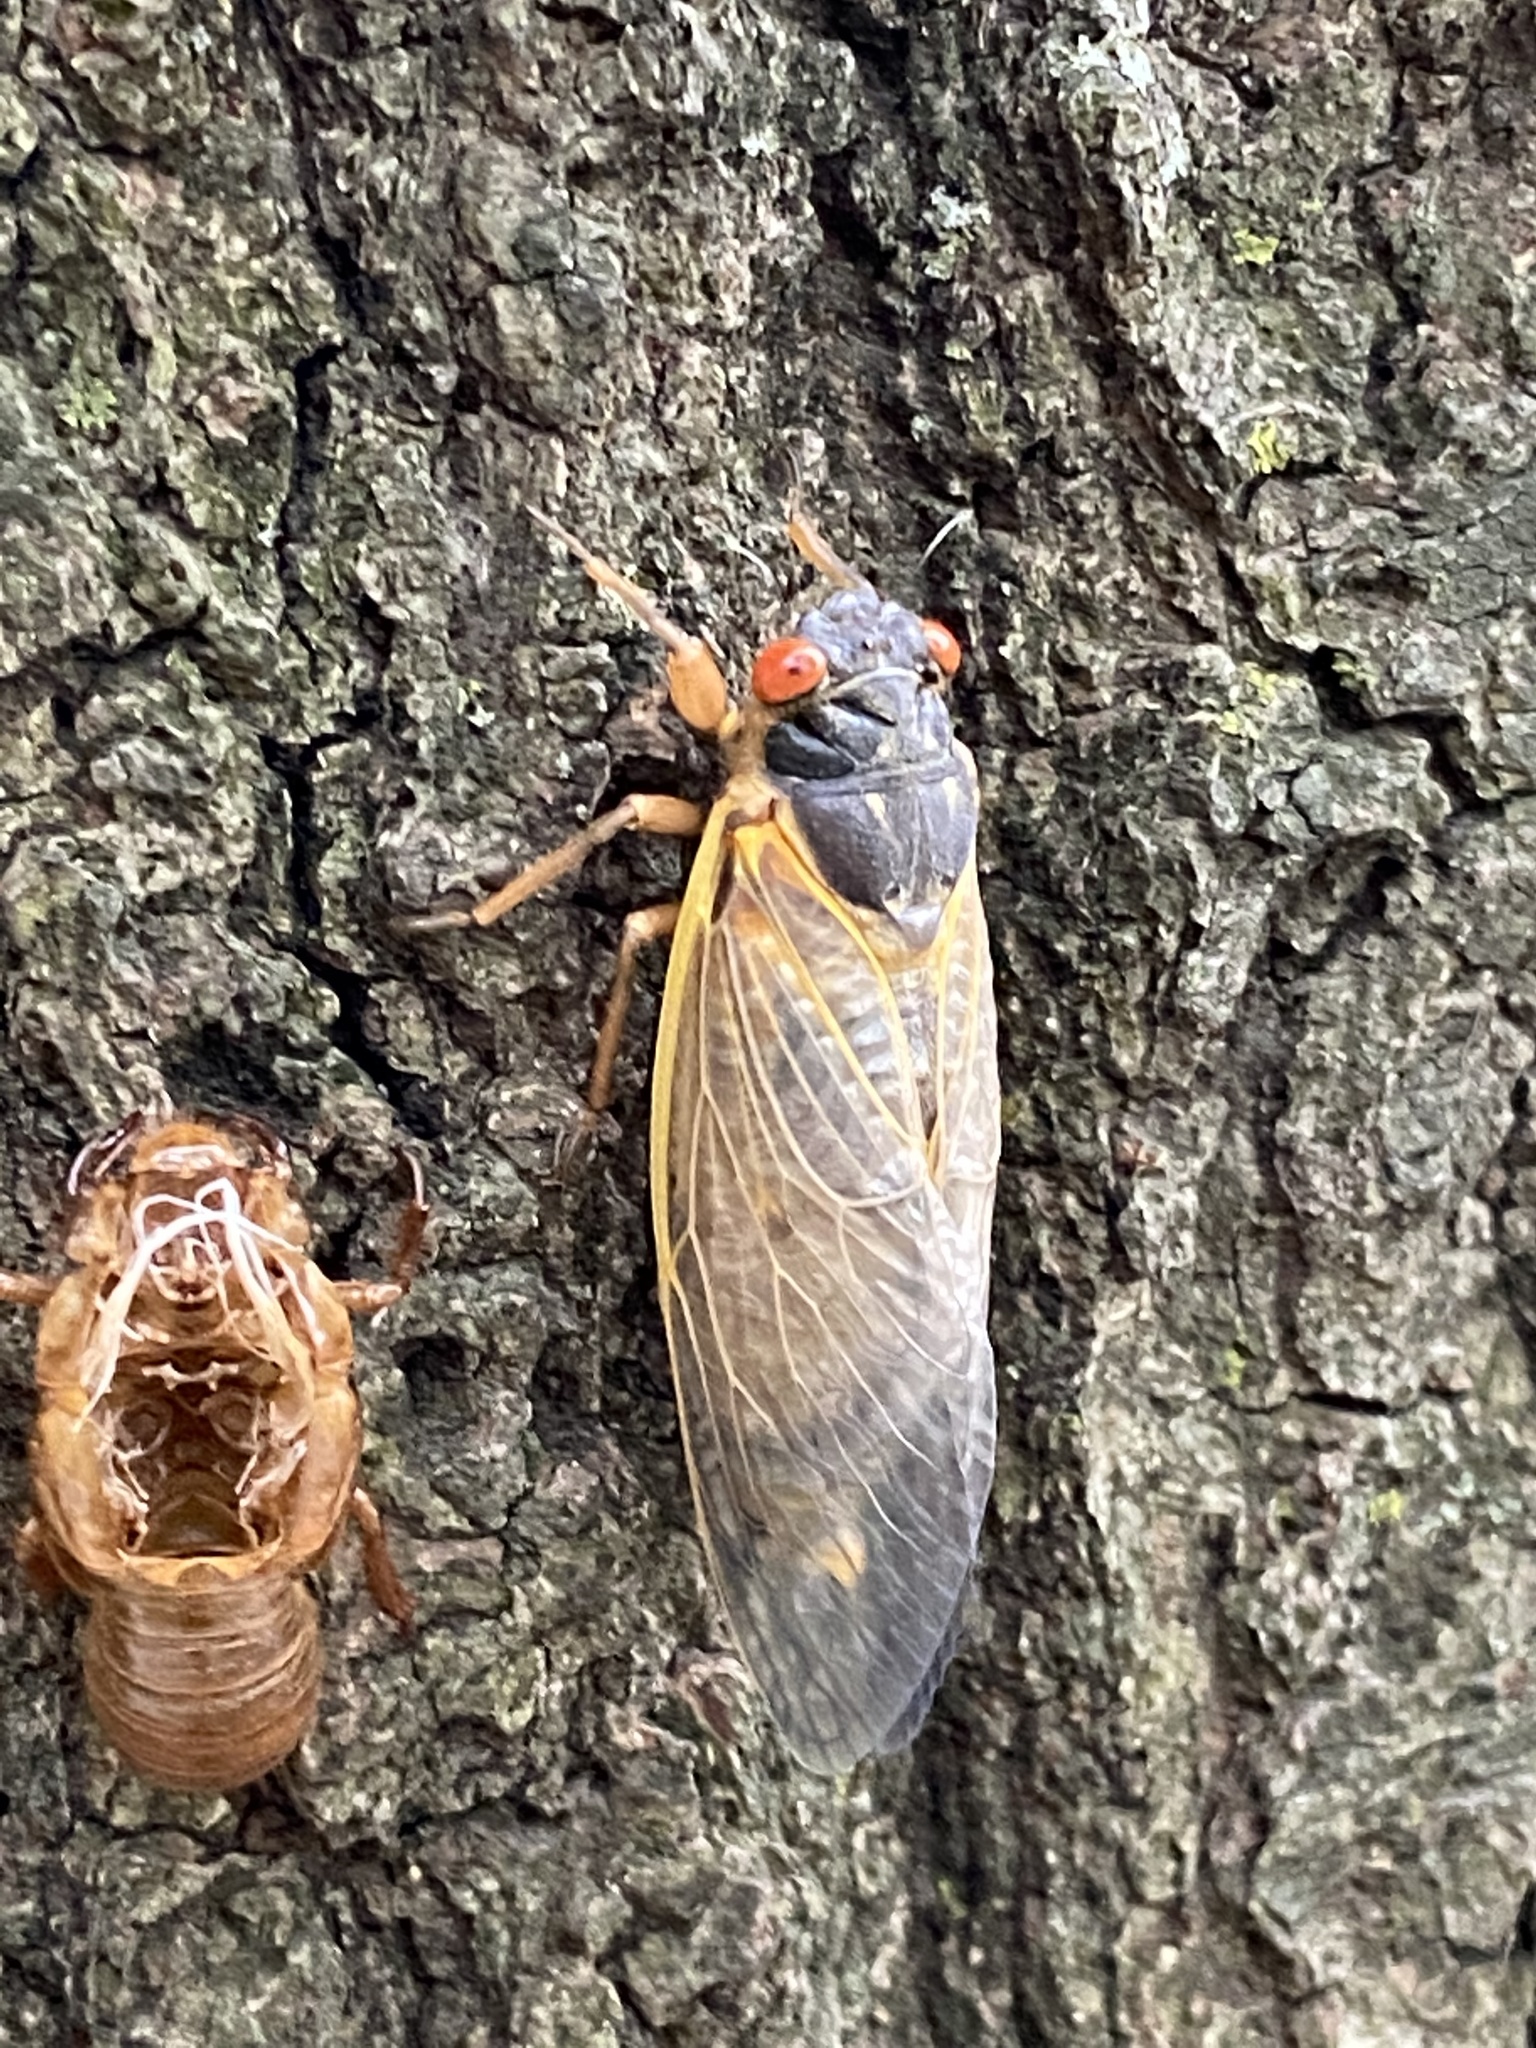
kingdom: Animalia
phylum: Arthropoda
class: Insecta
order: Hemiptera
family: Cicadidae
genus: Magicicada
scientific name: Magicicada septendecim
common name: Periodical cicada
